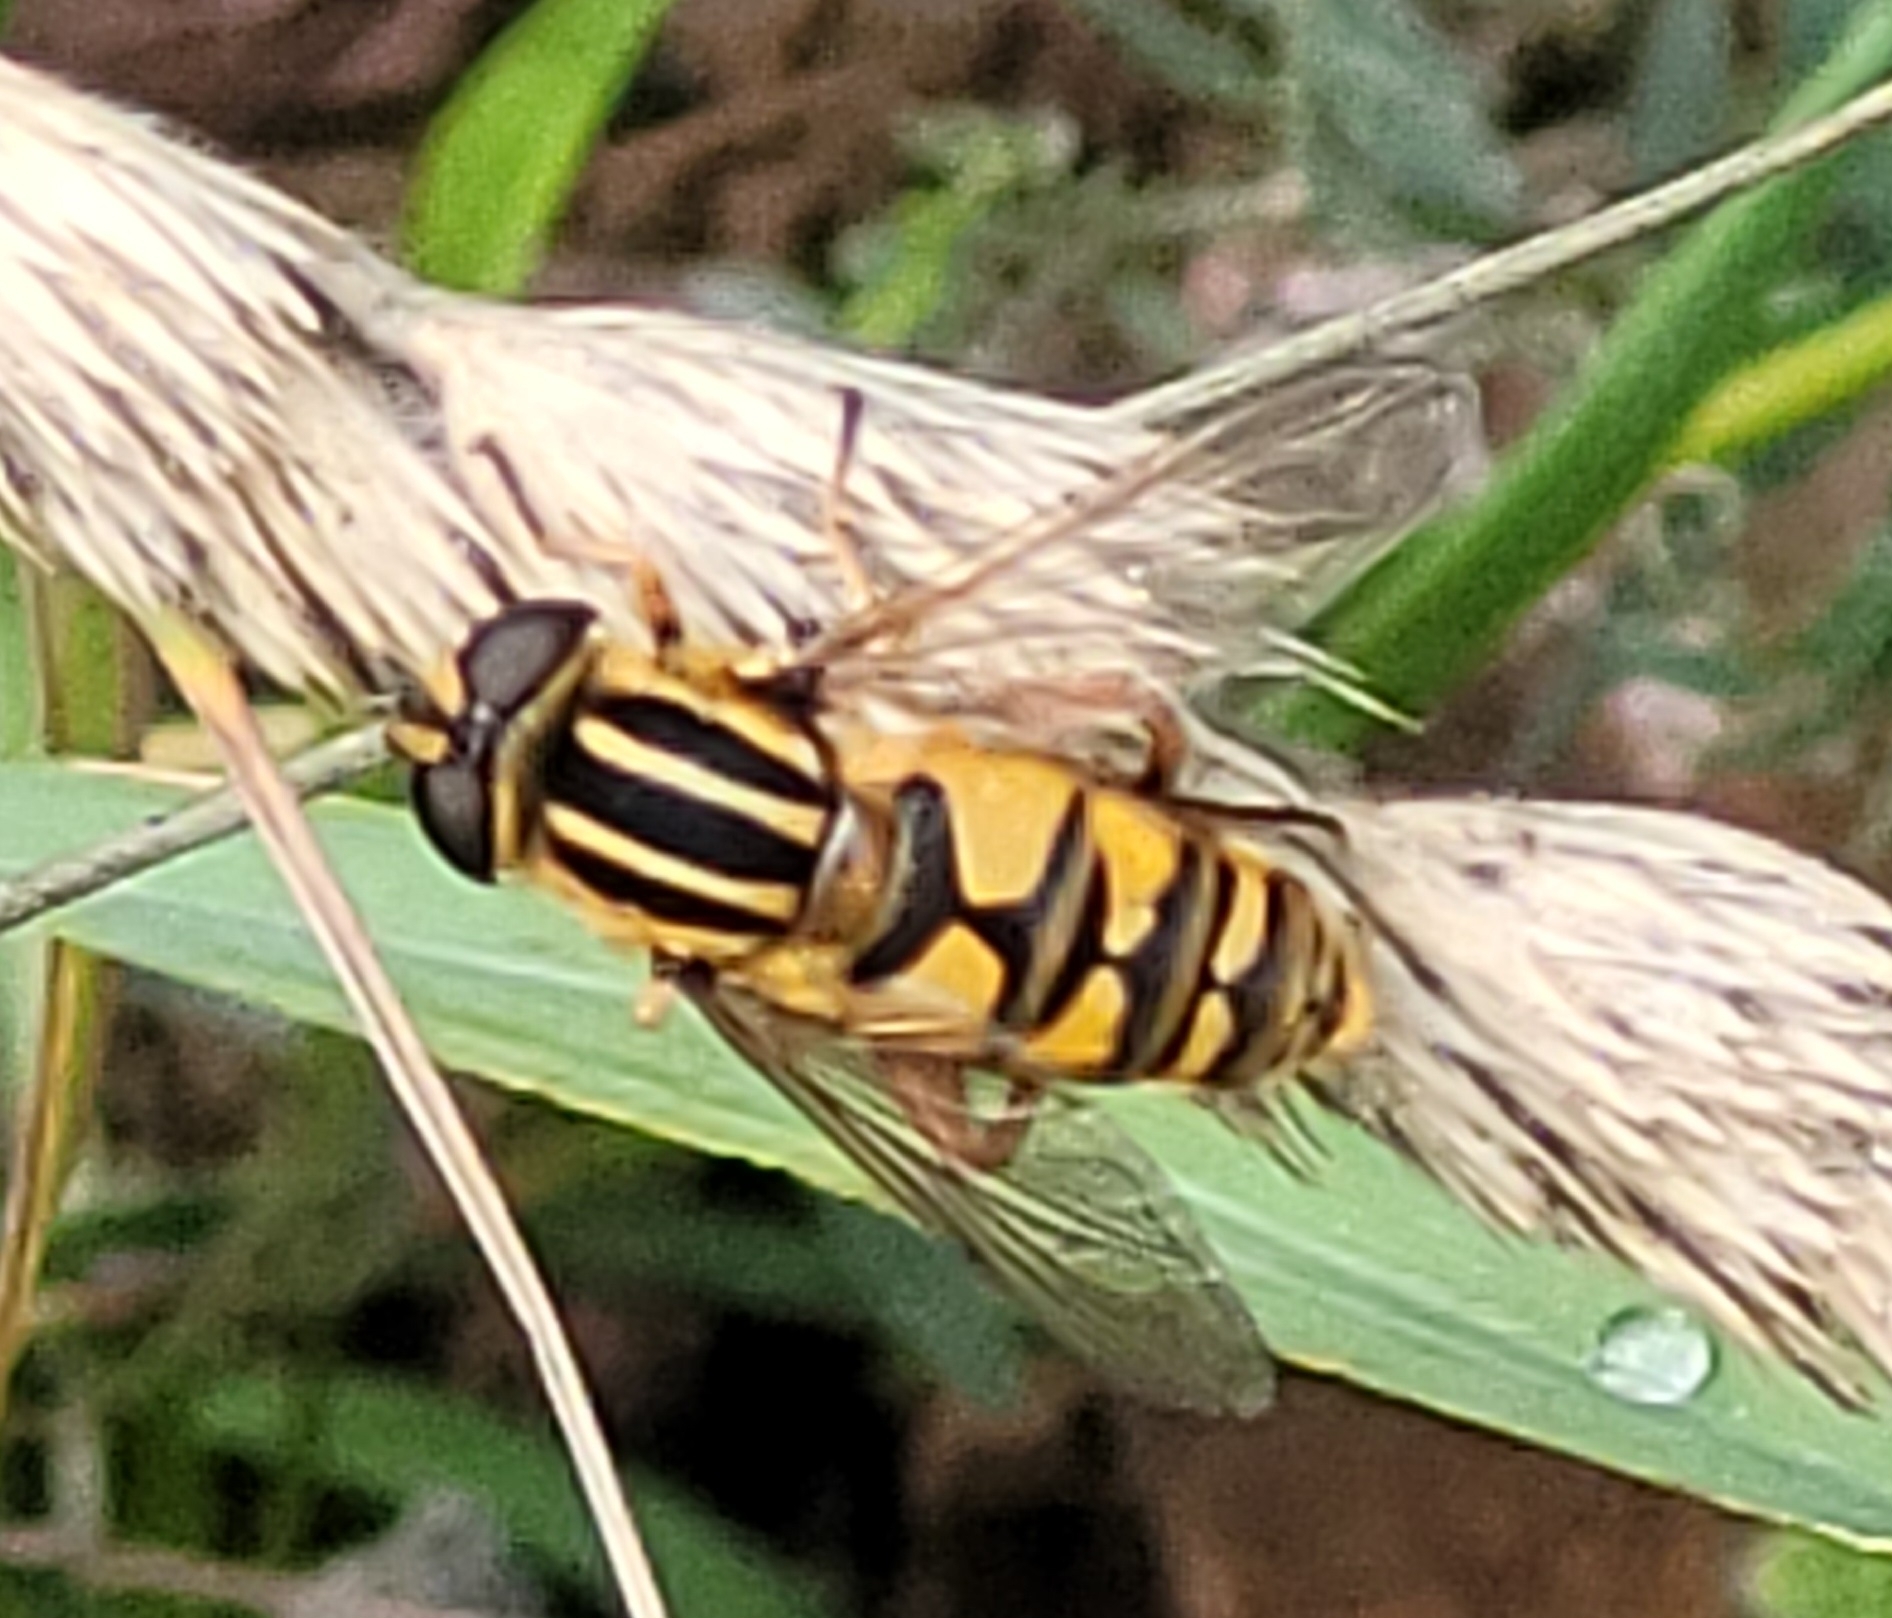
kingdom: Animalia
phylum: Arthropoda
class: Insecta
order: Diptera
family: Syrphidae
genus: Helophilus
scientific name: Helophilus pendulus
